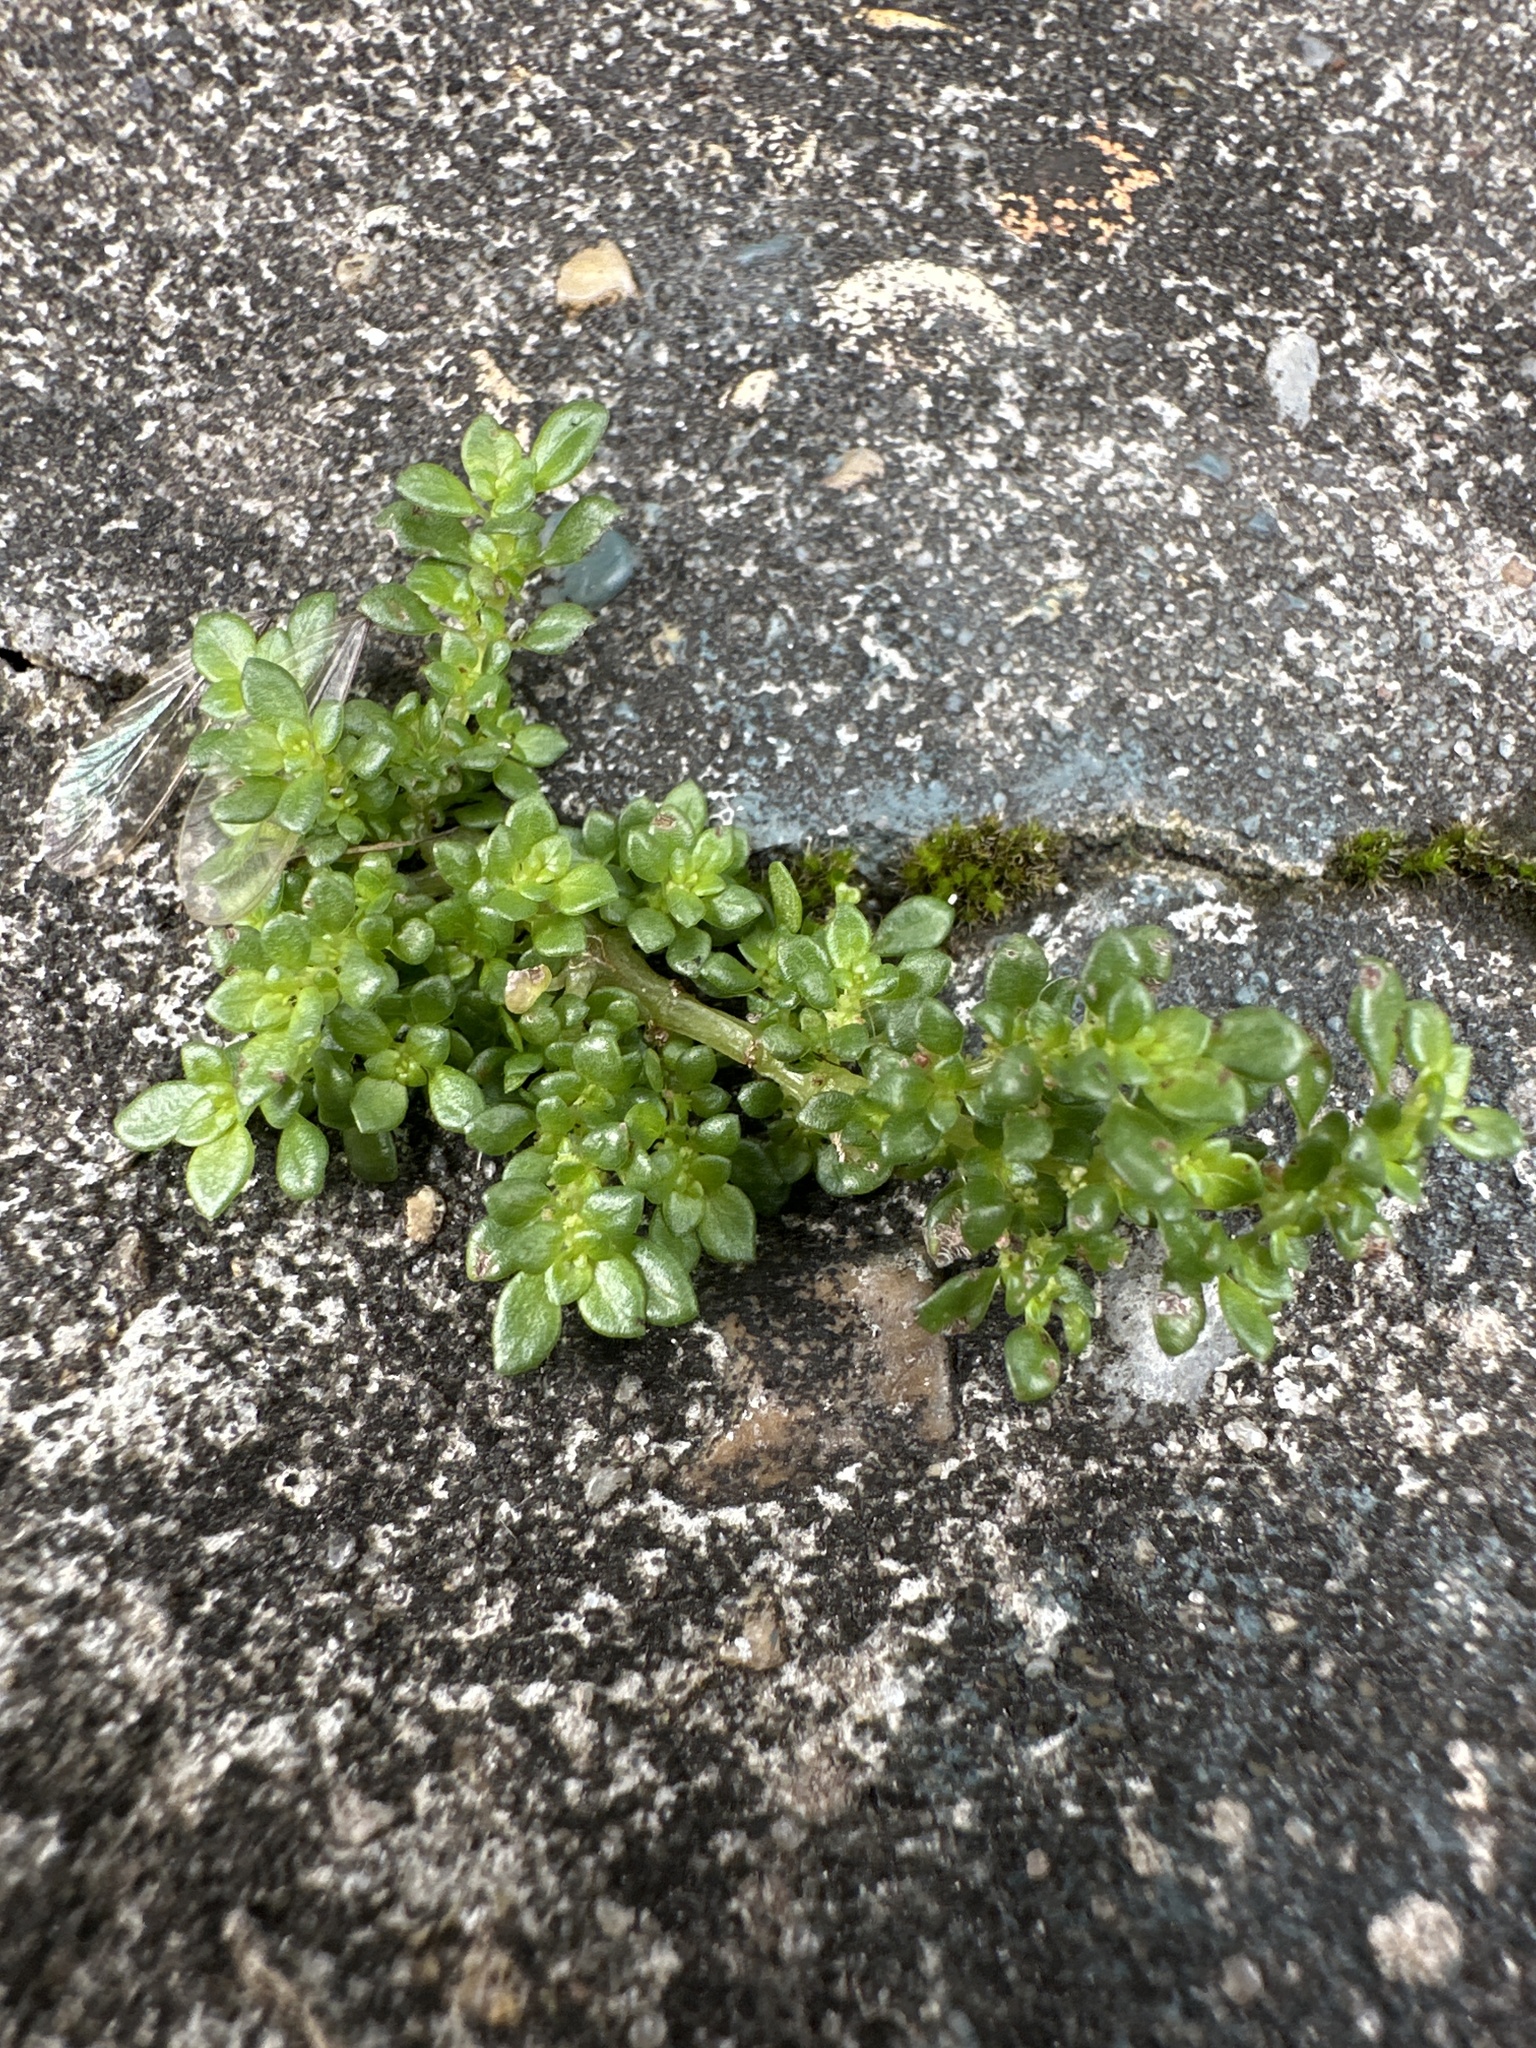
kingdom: Plantae
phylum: Tracheophyta
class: Magnoliopsida
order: Rosales
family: Urticaceae
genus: Pilea
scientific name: Pilea microphylla
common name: Artillery-plant
